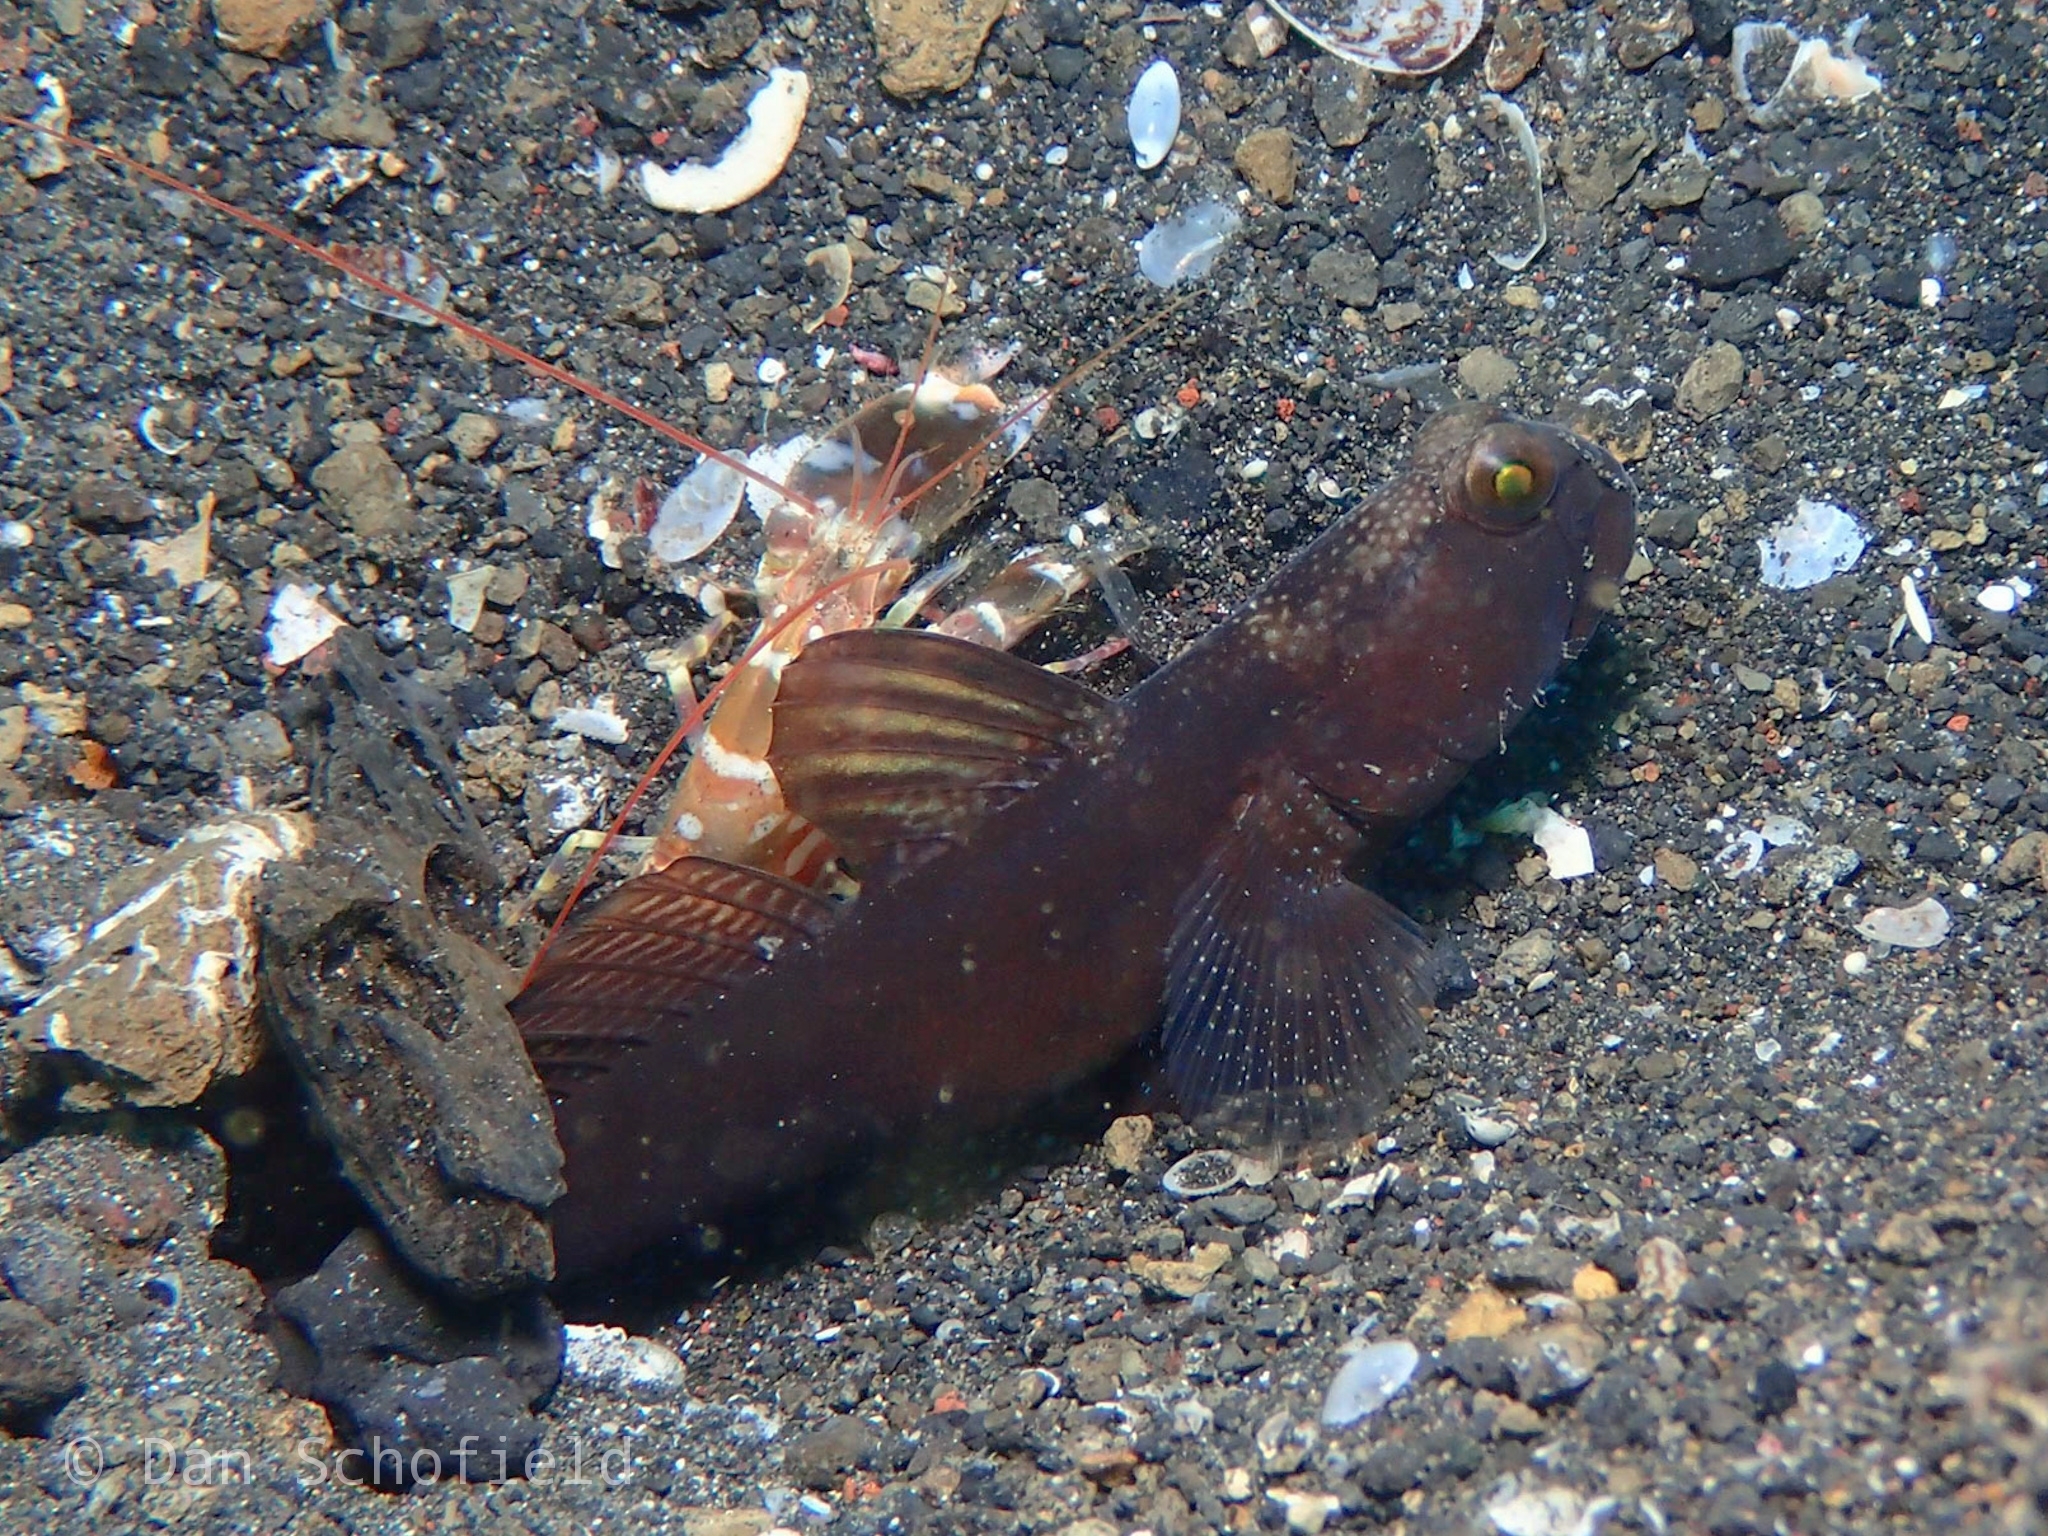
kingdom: Animalia
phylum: Chordata
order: Perciformes
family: Gobiidae
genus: Cryptocentrus
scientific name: Cryptocentrus fasciatus
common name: Barred prawn-goby
